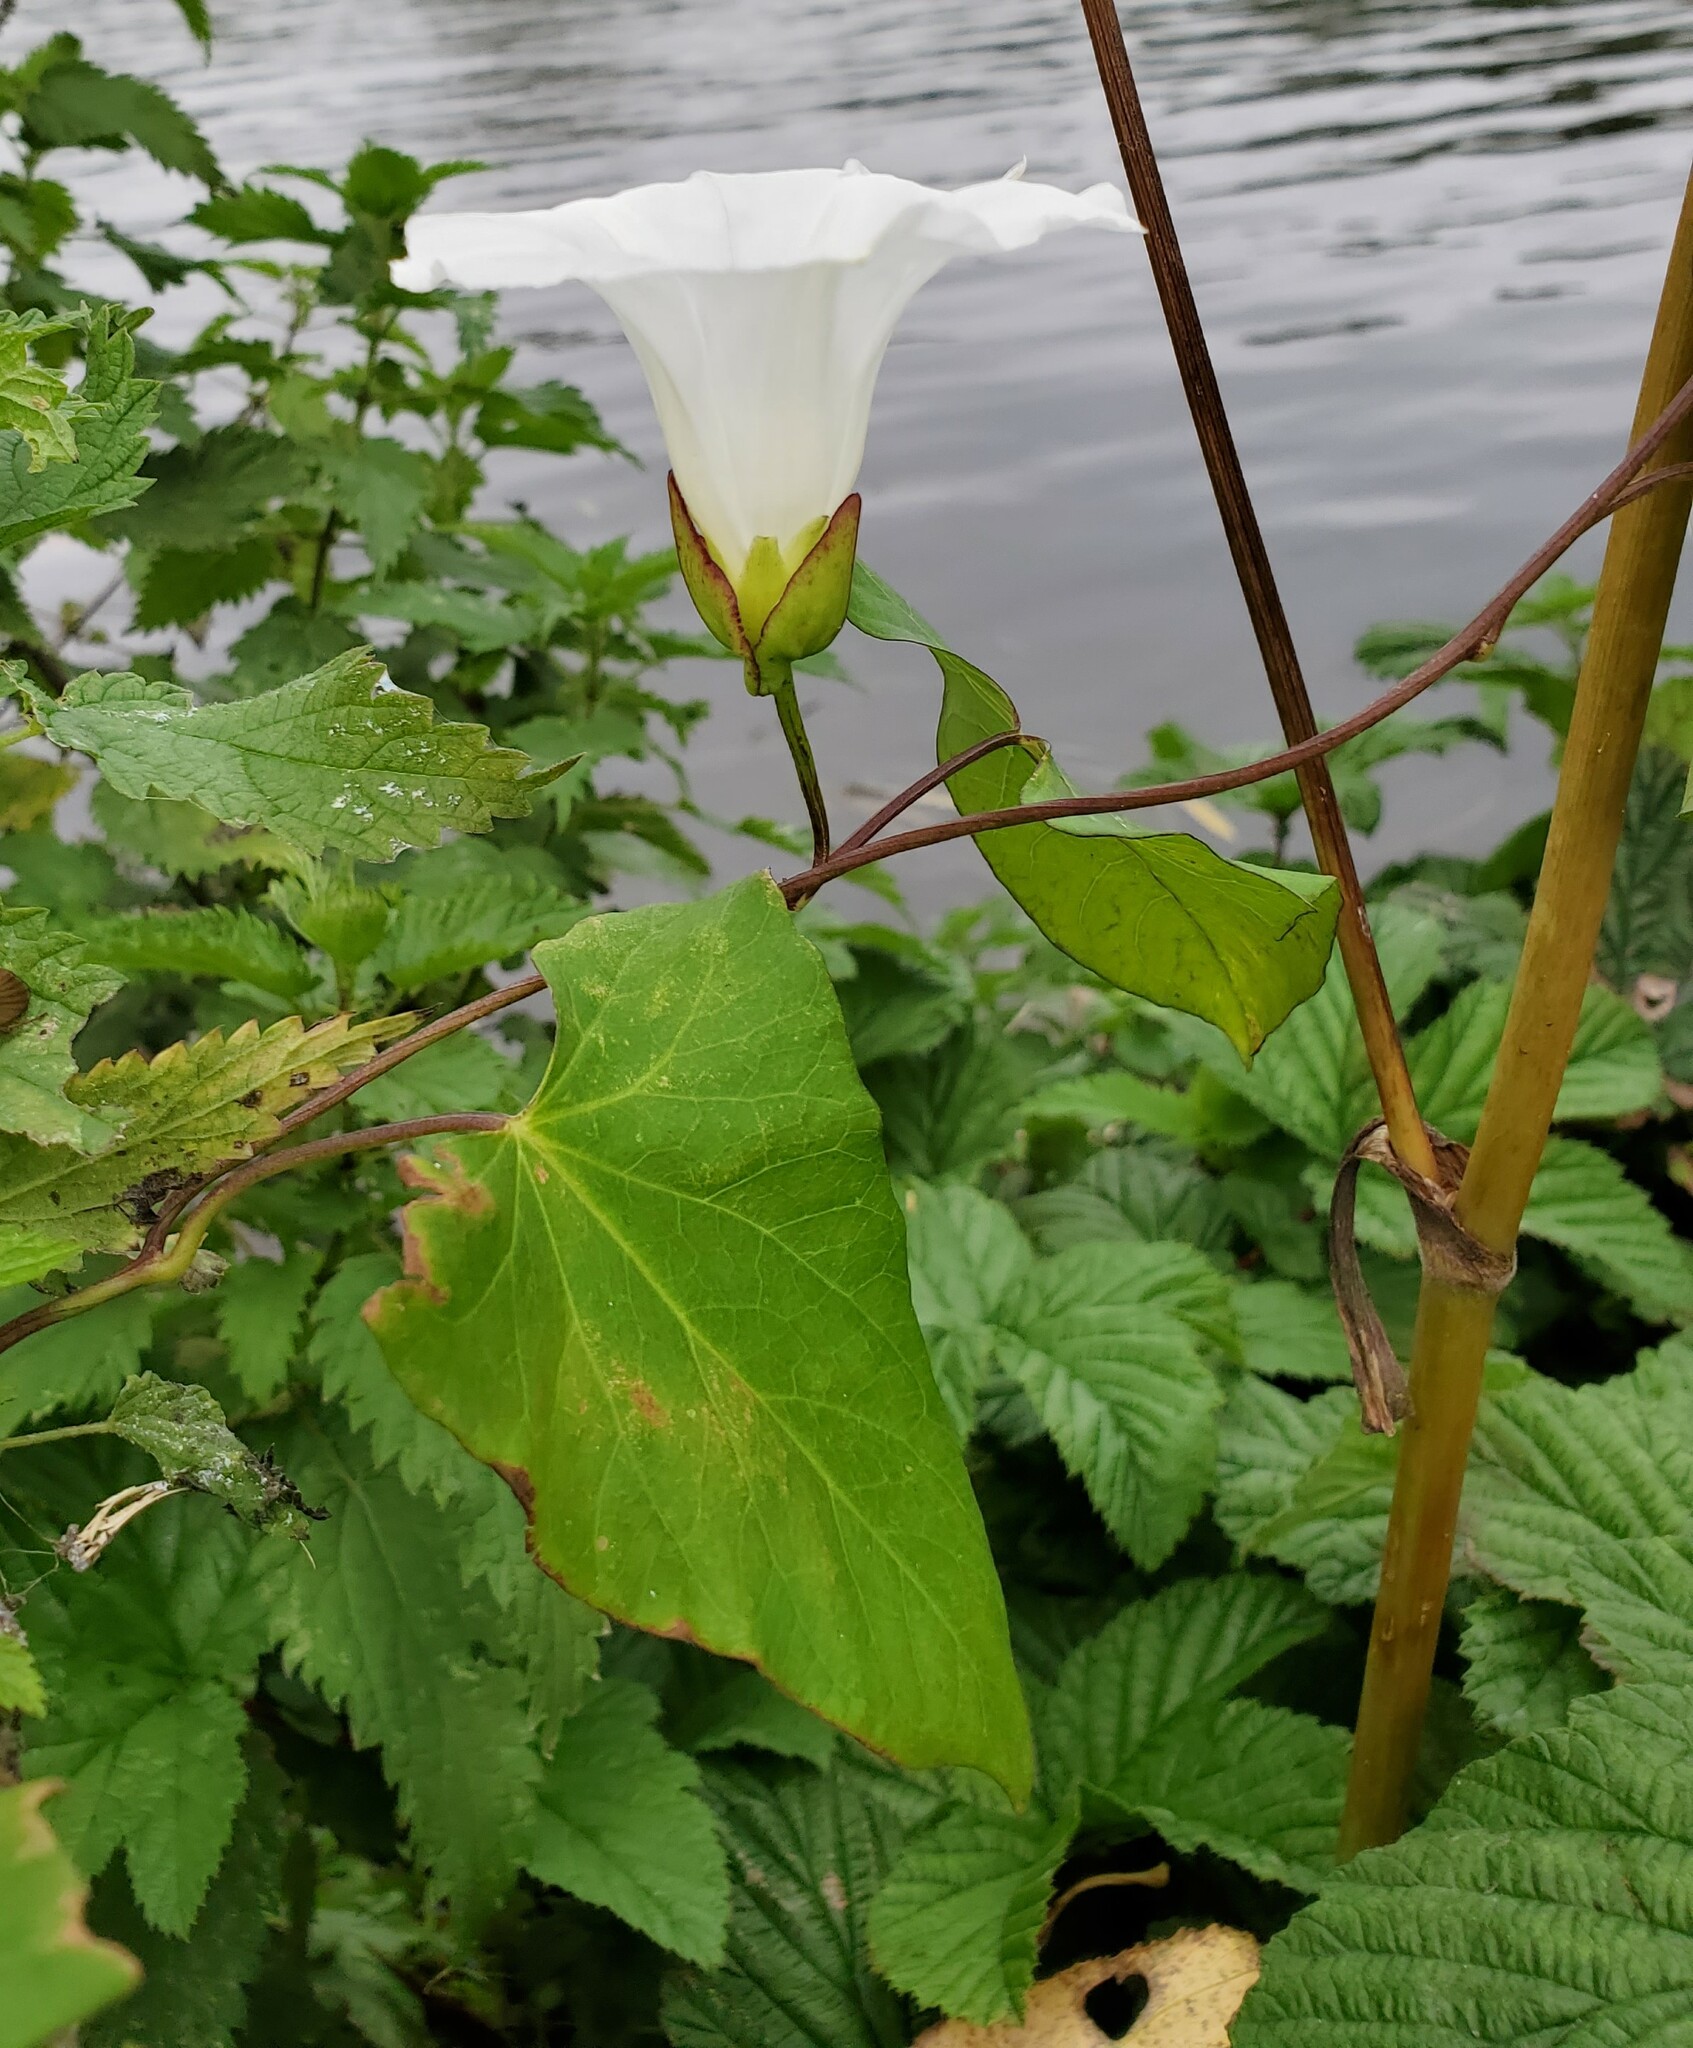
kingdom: Plantae
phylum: Tracheophyta
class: Magnoliopsida
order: Solanales
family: Convolvulaceae
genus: Calystegia
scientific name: Calystegia sepium
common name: Hedge bindweed
